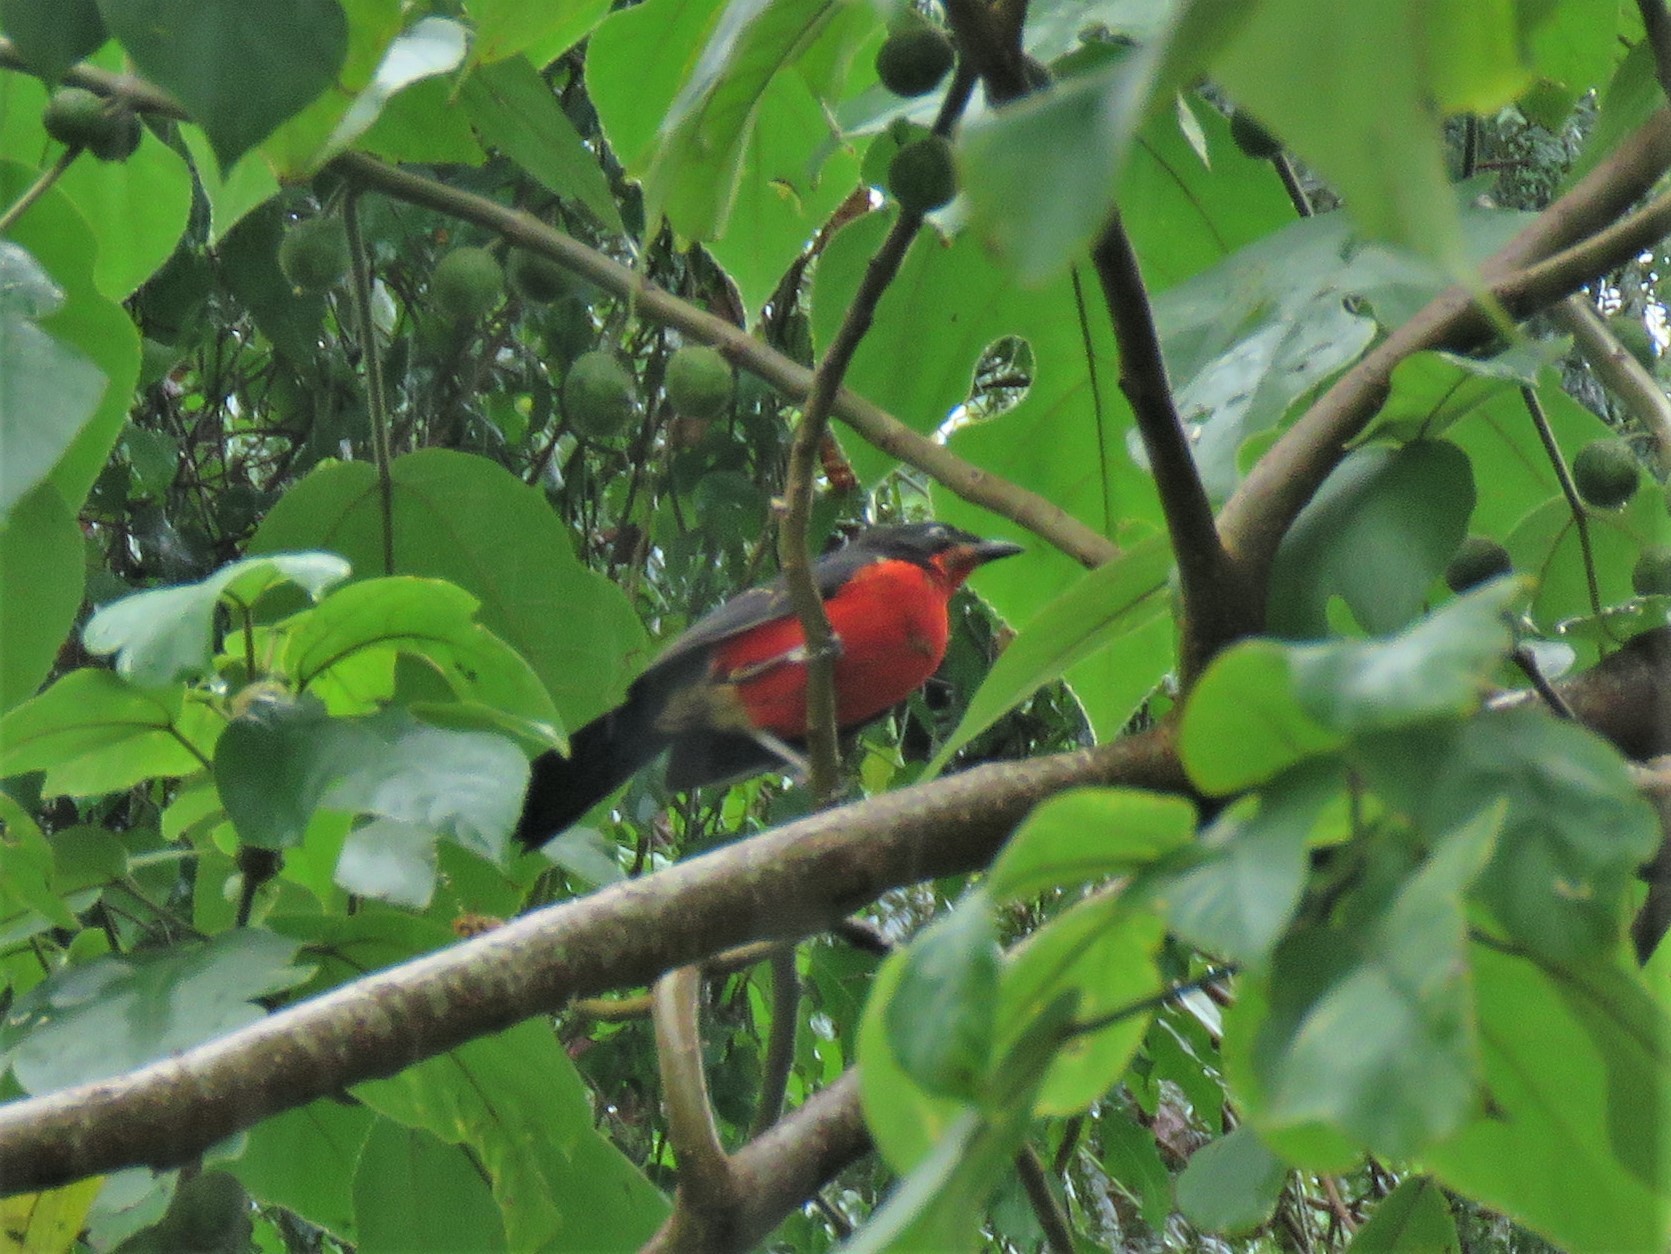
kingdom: Animalia
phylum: Chordata
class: Aves
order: Passeriformes
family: Malaconotidae
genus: Laniarius
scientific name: Laniarius erythrogaster
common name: Black-headed gonolek
